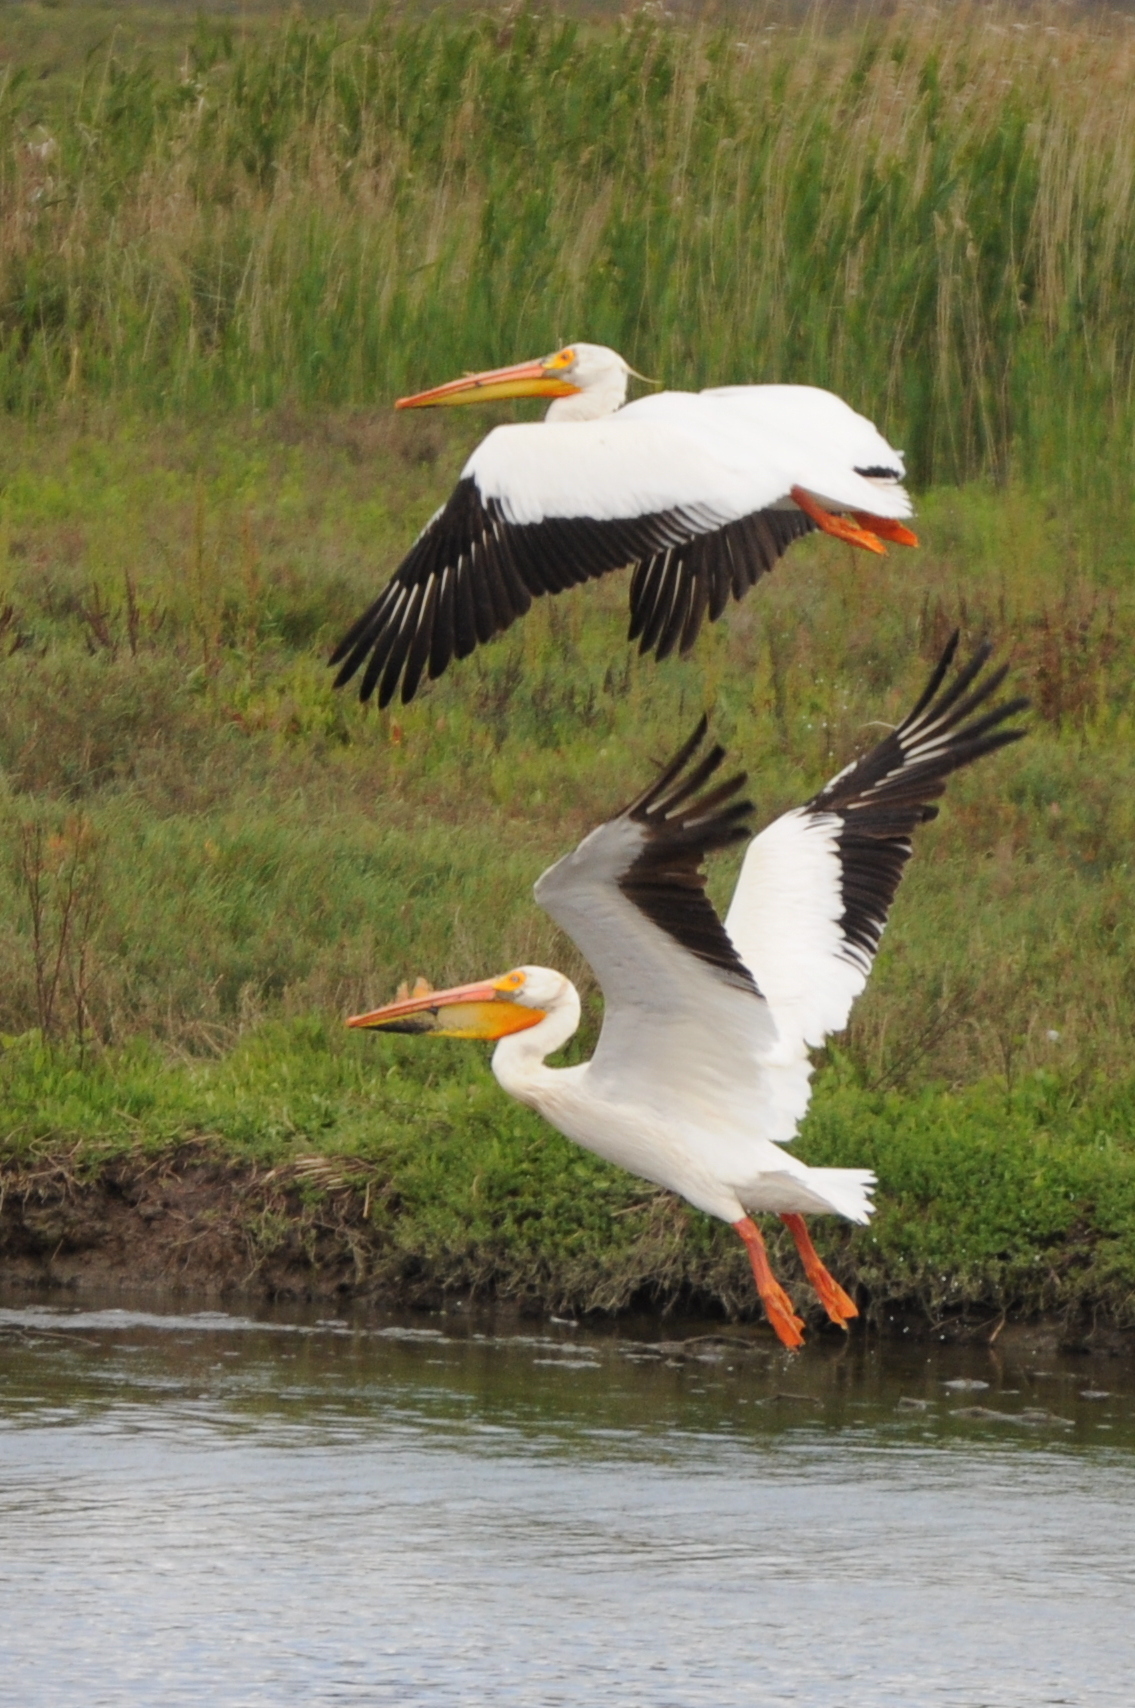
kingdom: Animalia
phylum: Chordata
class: Aves
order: Pelecaniformes
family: Pelecanidae
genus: Pelecanus
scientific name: Pelecanus erythrorhynchos
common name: American white pelican
